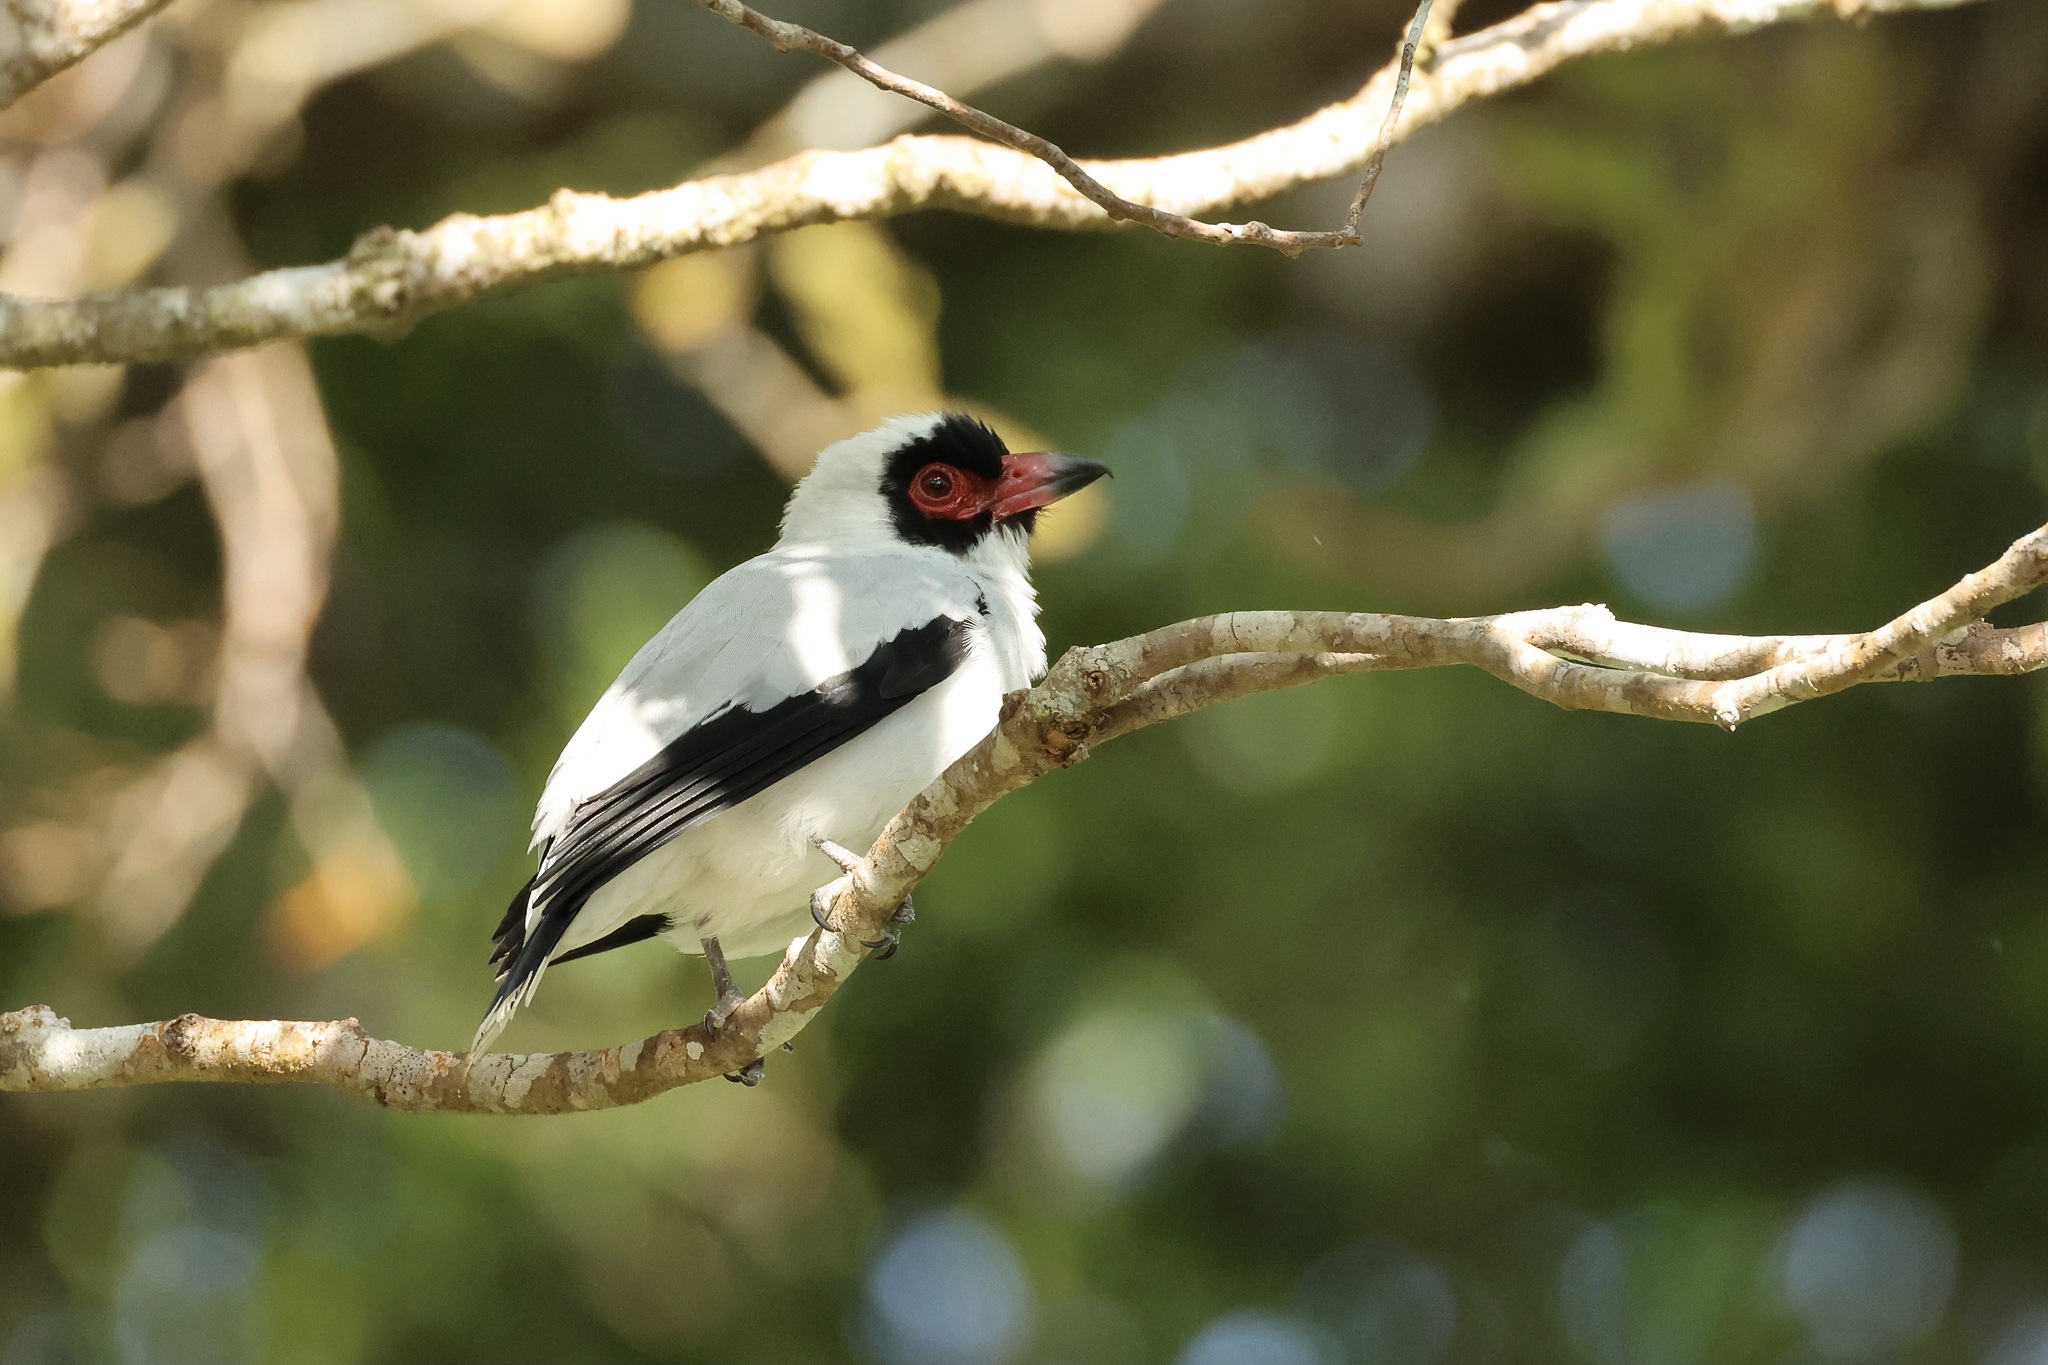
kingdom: Animalia
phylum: Chordata
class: Aves
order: Passeriformes
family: Cotingidae
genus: Tityra
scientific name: Tityra semifasciata
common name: Masked tityra
